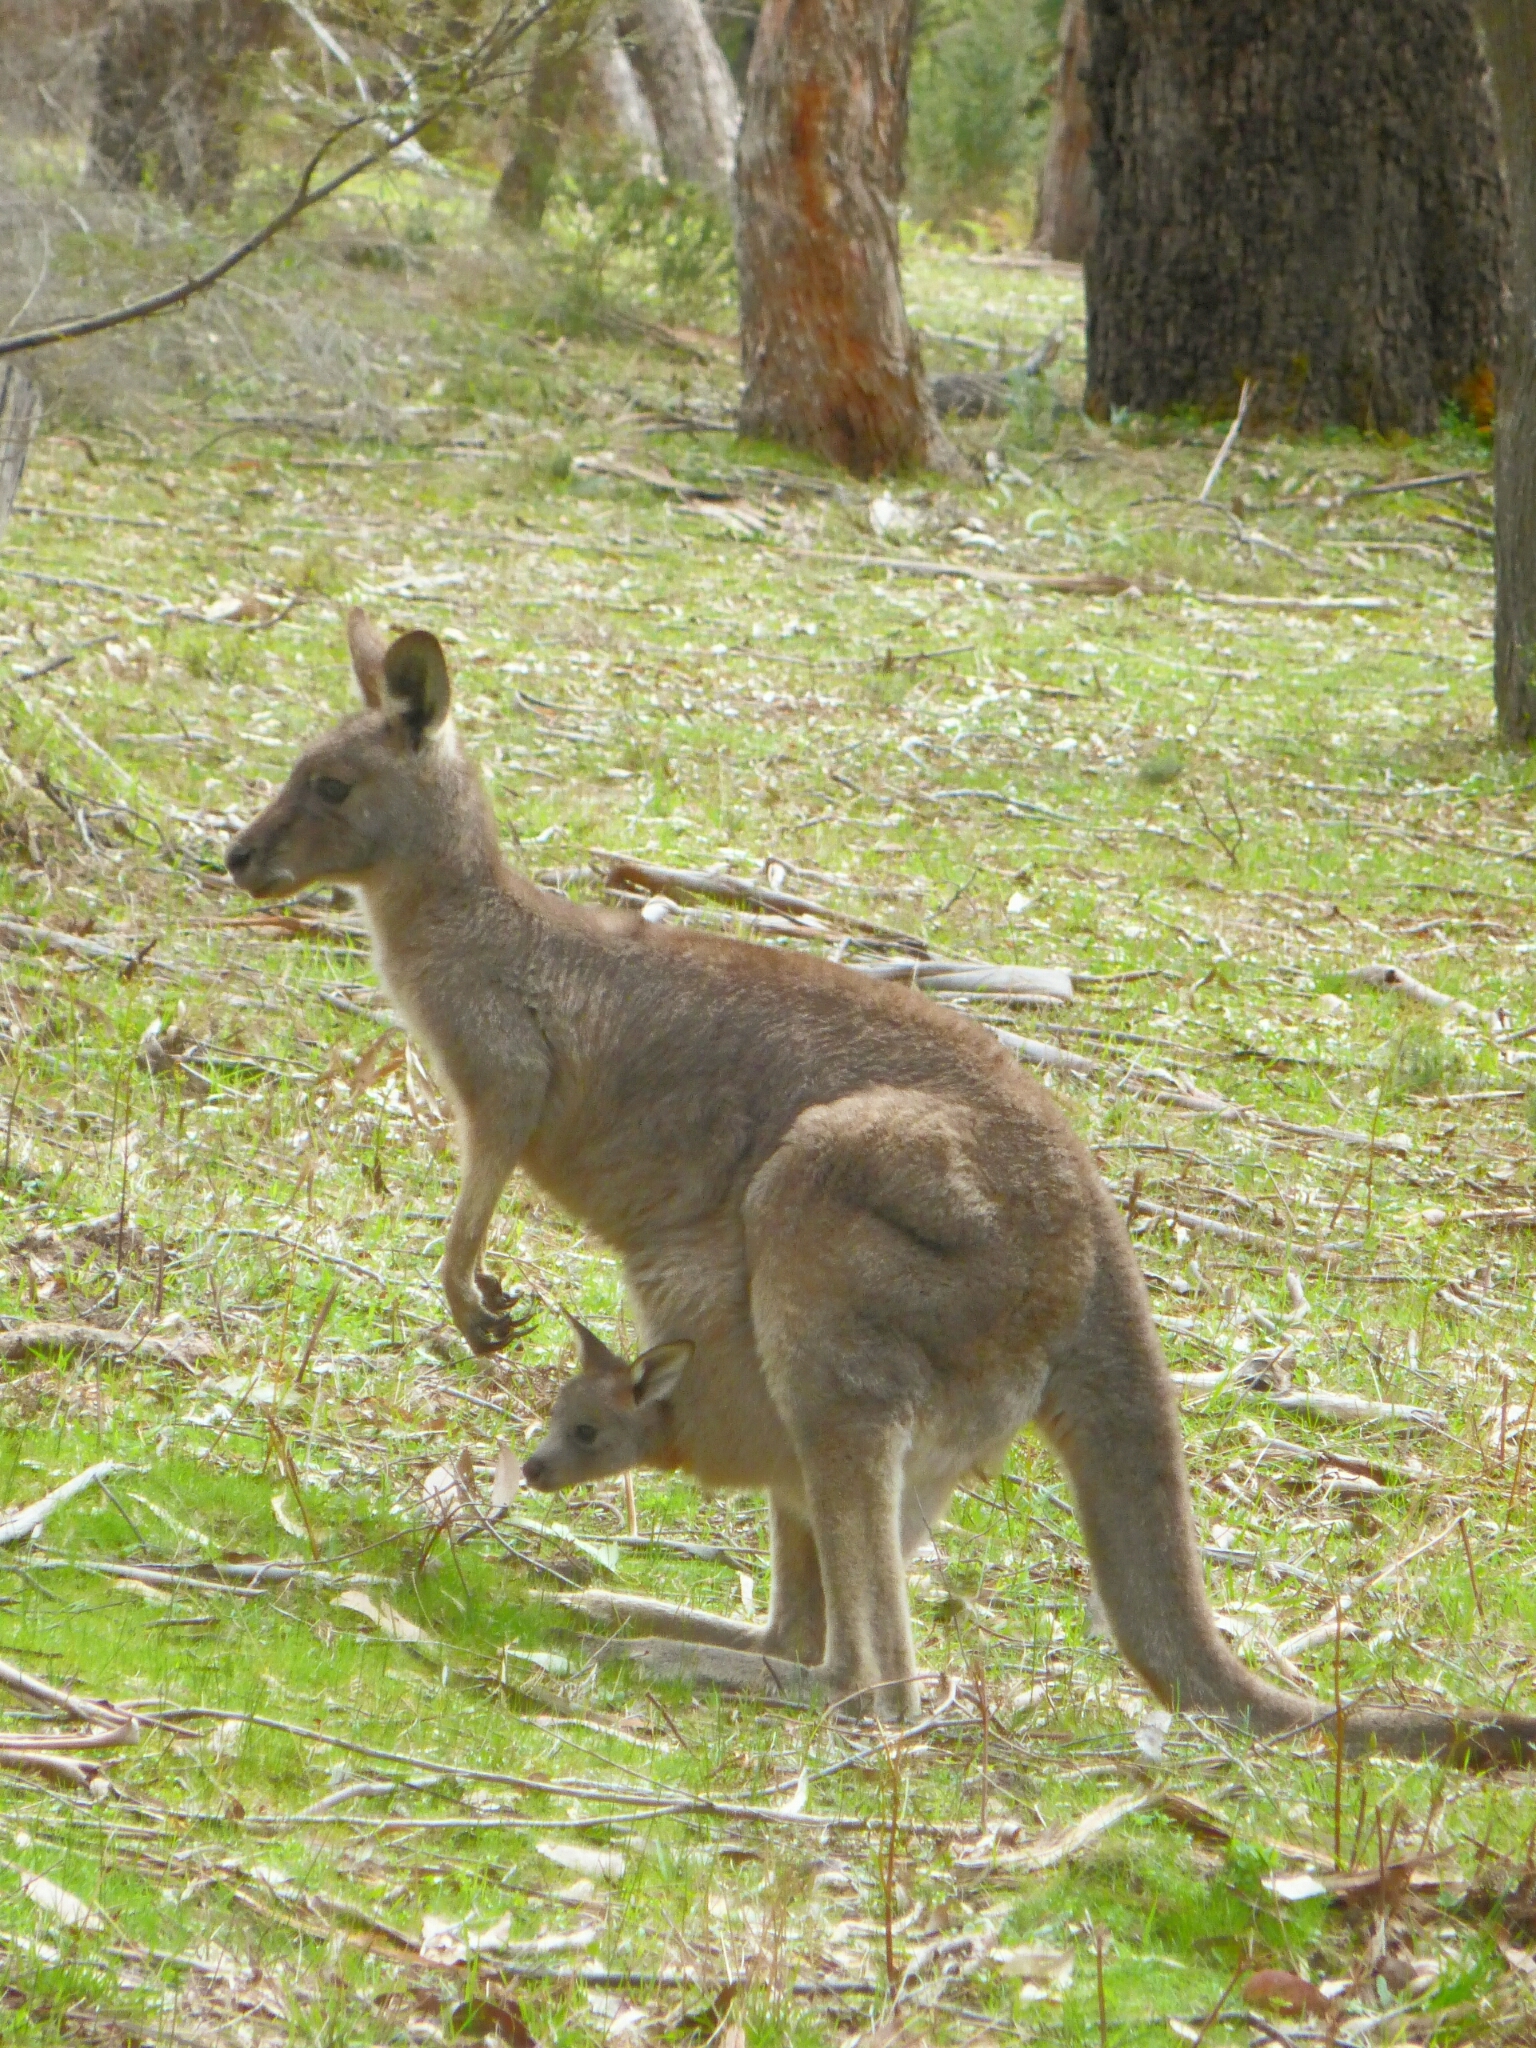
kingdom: Animalia
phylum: Chordata
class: Mammalia
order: Diprotodontia
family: Macropodidae
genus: Macropus
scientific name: Macropus giganteus
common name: Eastern grey kangaroo
